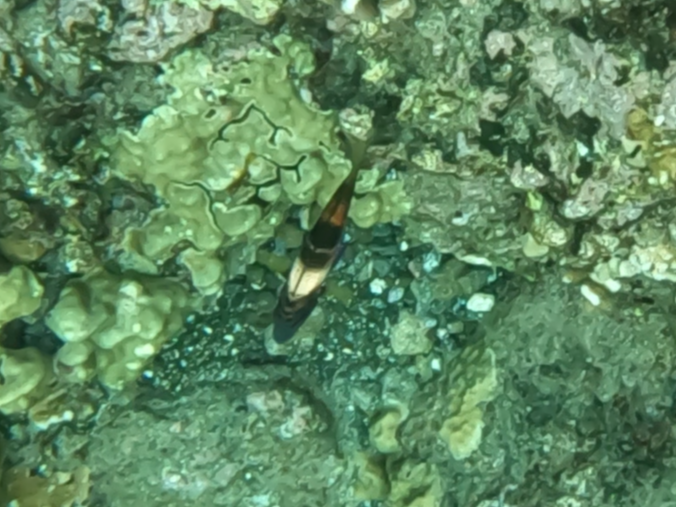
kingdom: Animalia
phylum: Chordata
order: Perciformes
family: Mullidae
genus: Parupeneus
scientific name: Parupeneus multifasciatus
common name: Manybar goatfish
